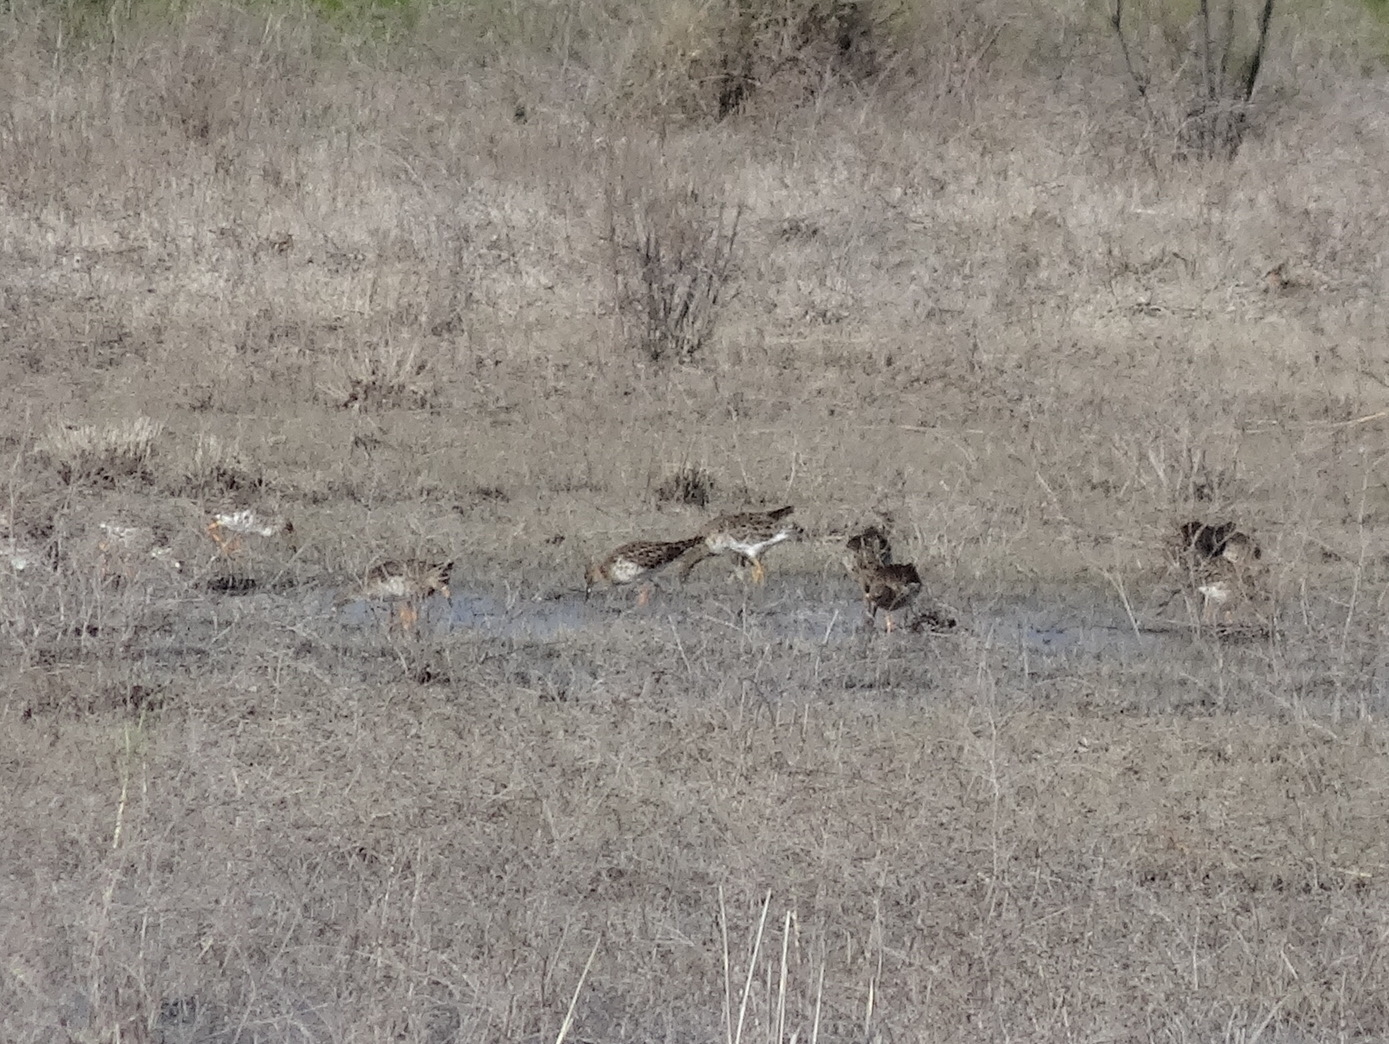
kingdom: Animalia
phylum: Chordata
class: Aves
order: Charadriiformes
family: Scolopacidae
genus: Calidris
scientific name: Calidris pugnax
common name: Ruff
